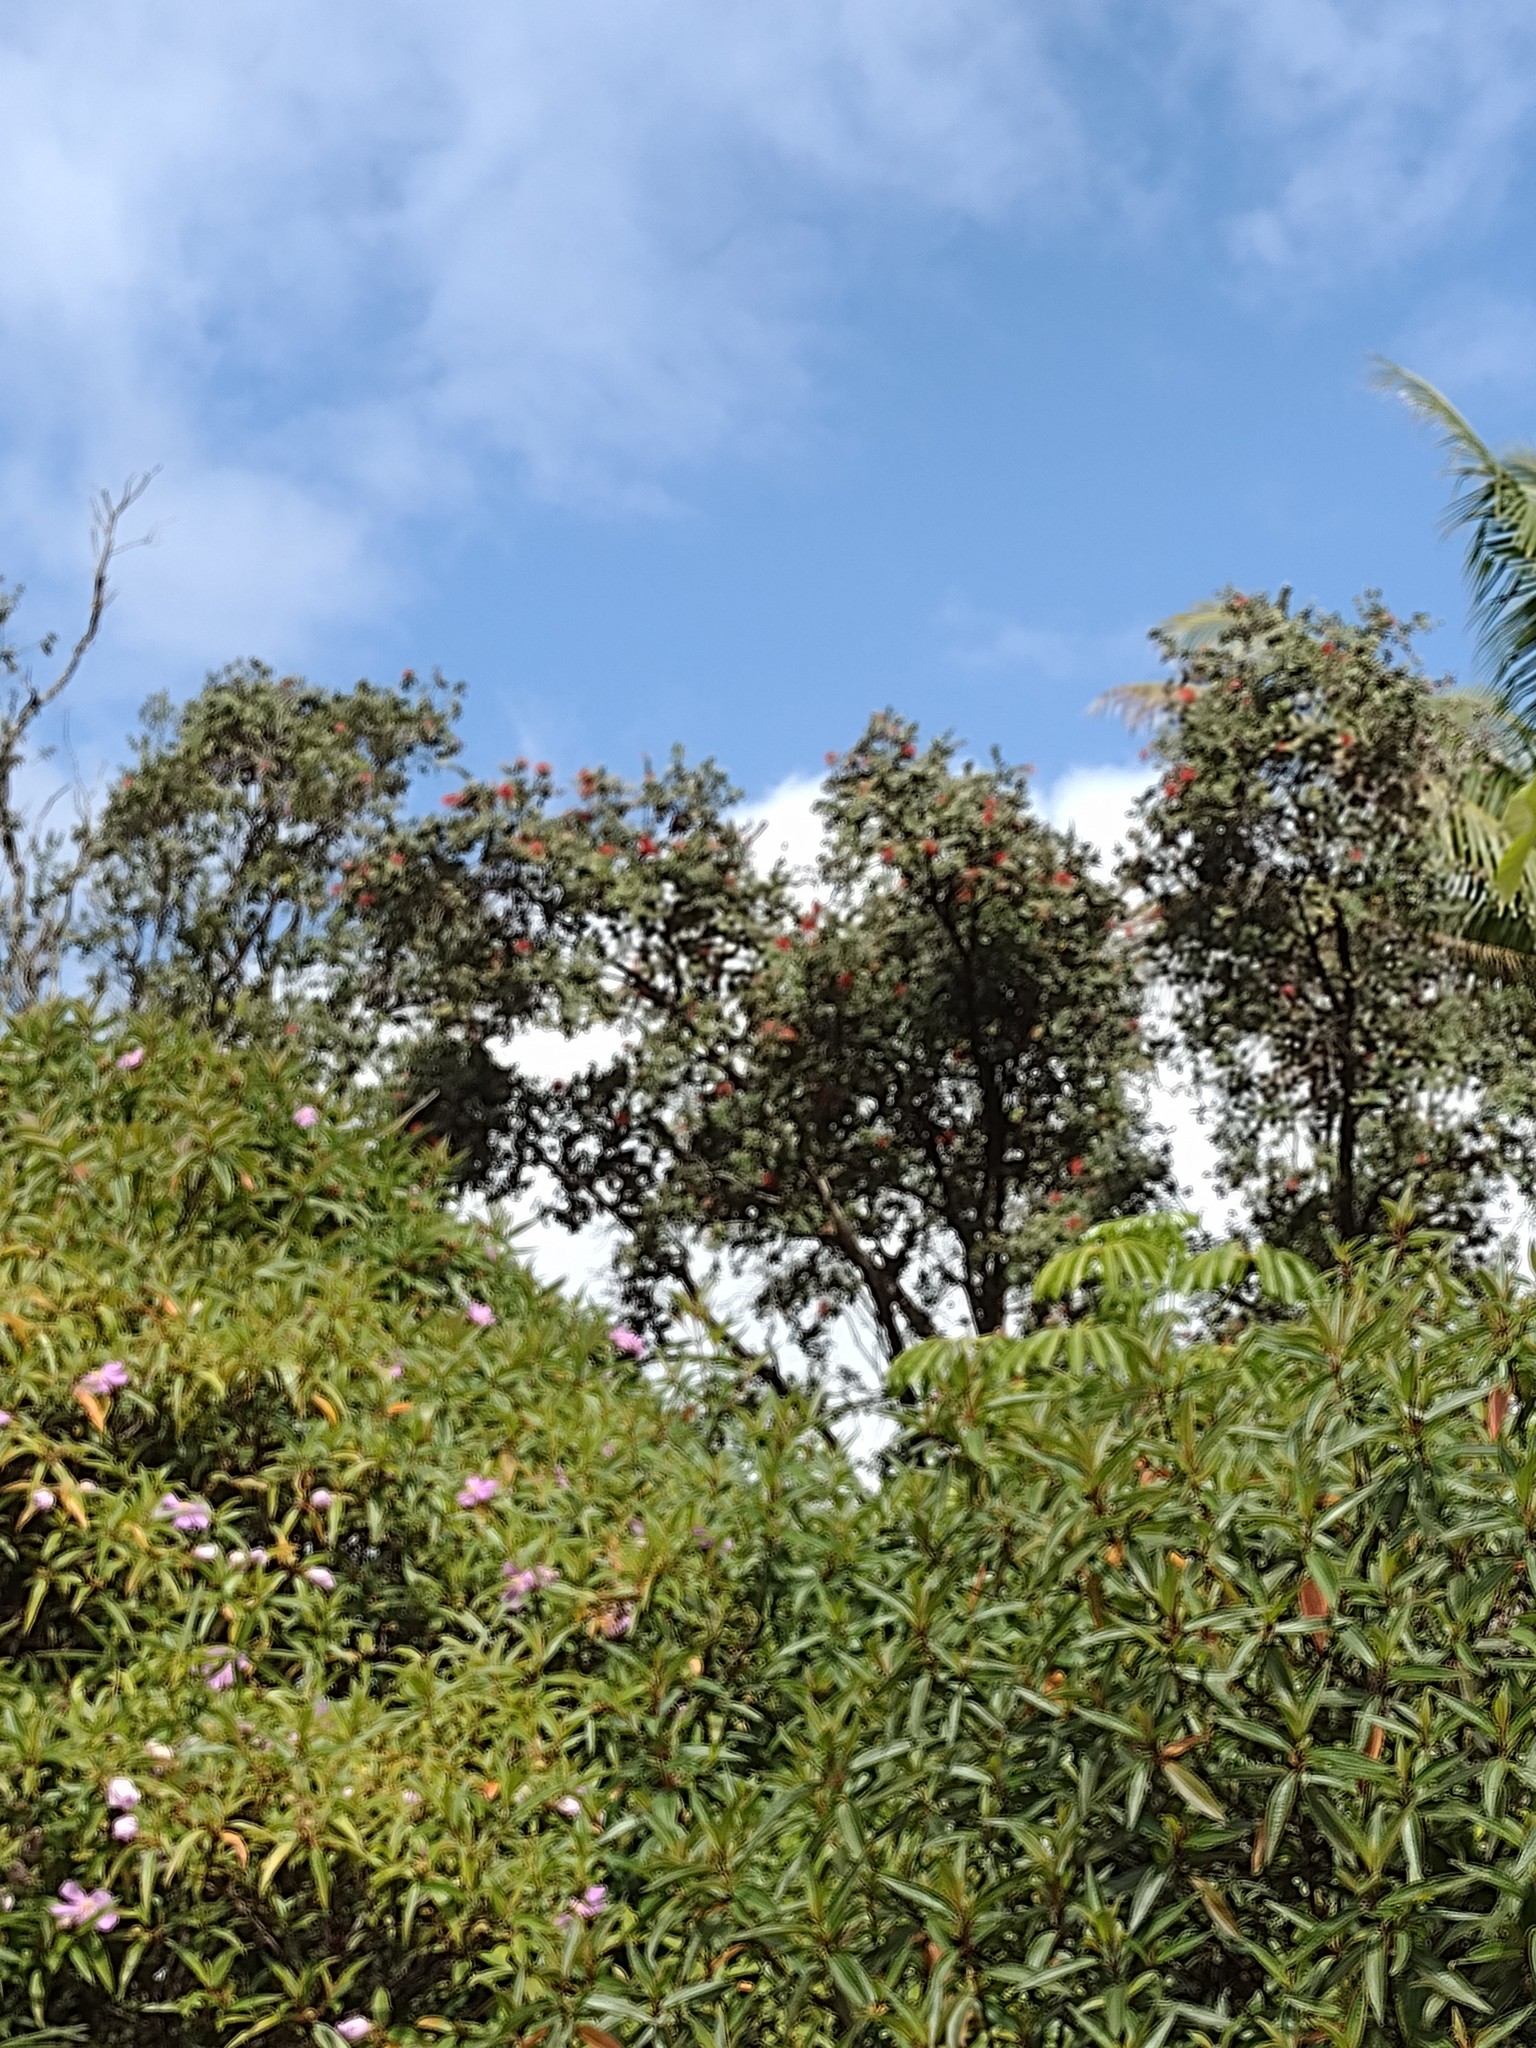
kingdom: Plantae
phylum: Tracheophyta
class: Magnoliopsida
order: Lamiales
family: Bignoniaceae
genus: Spathodea
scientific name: Spathodea campanulata
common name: African tuliptree
